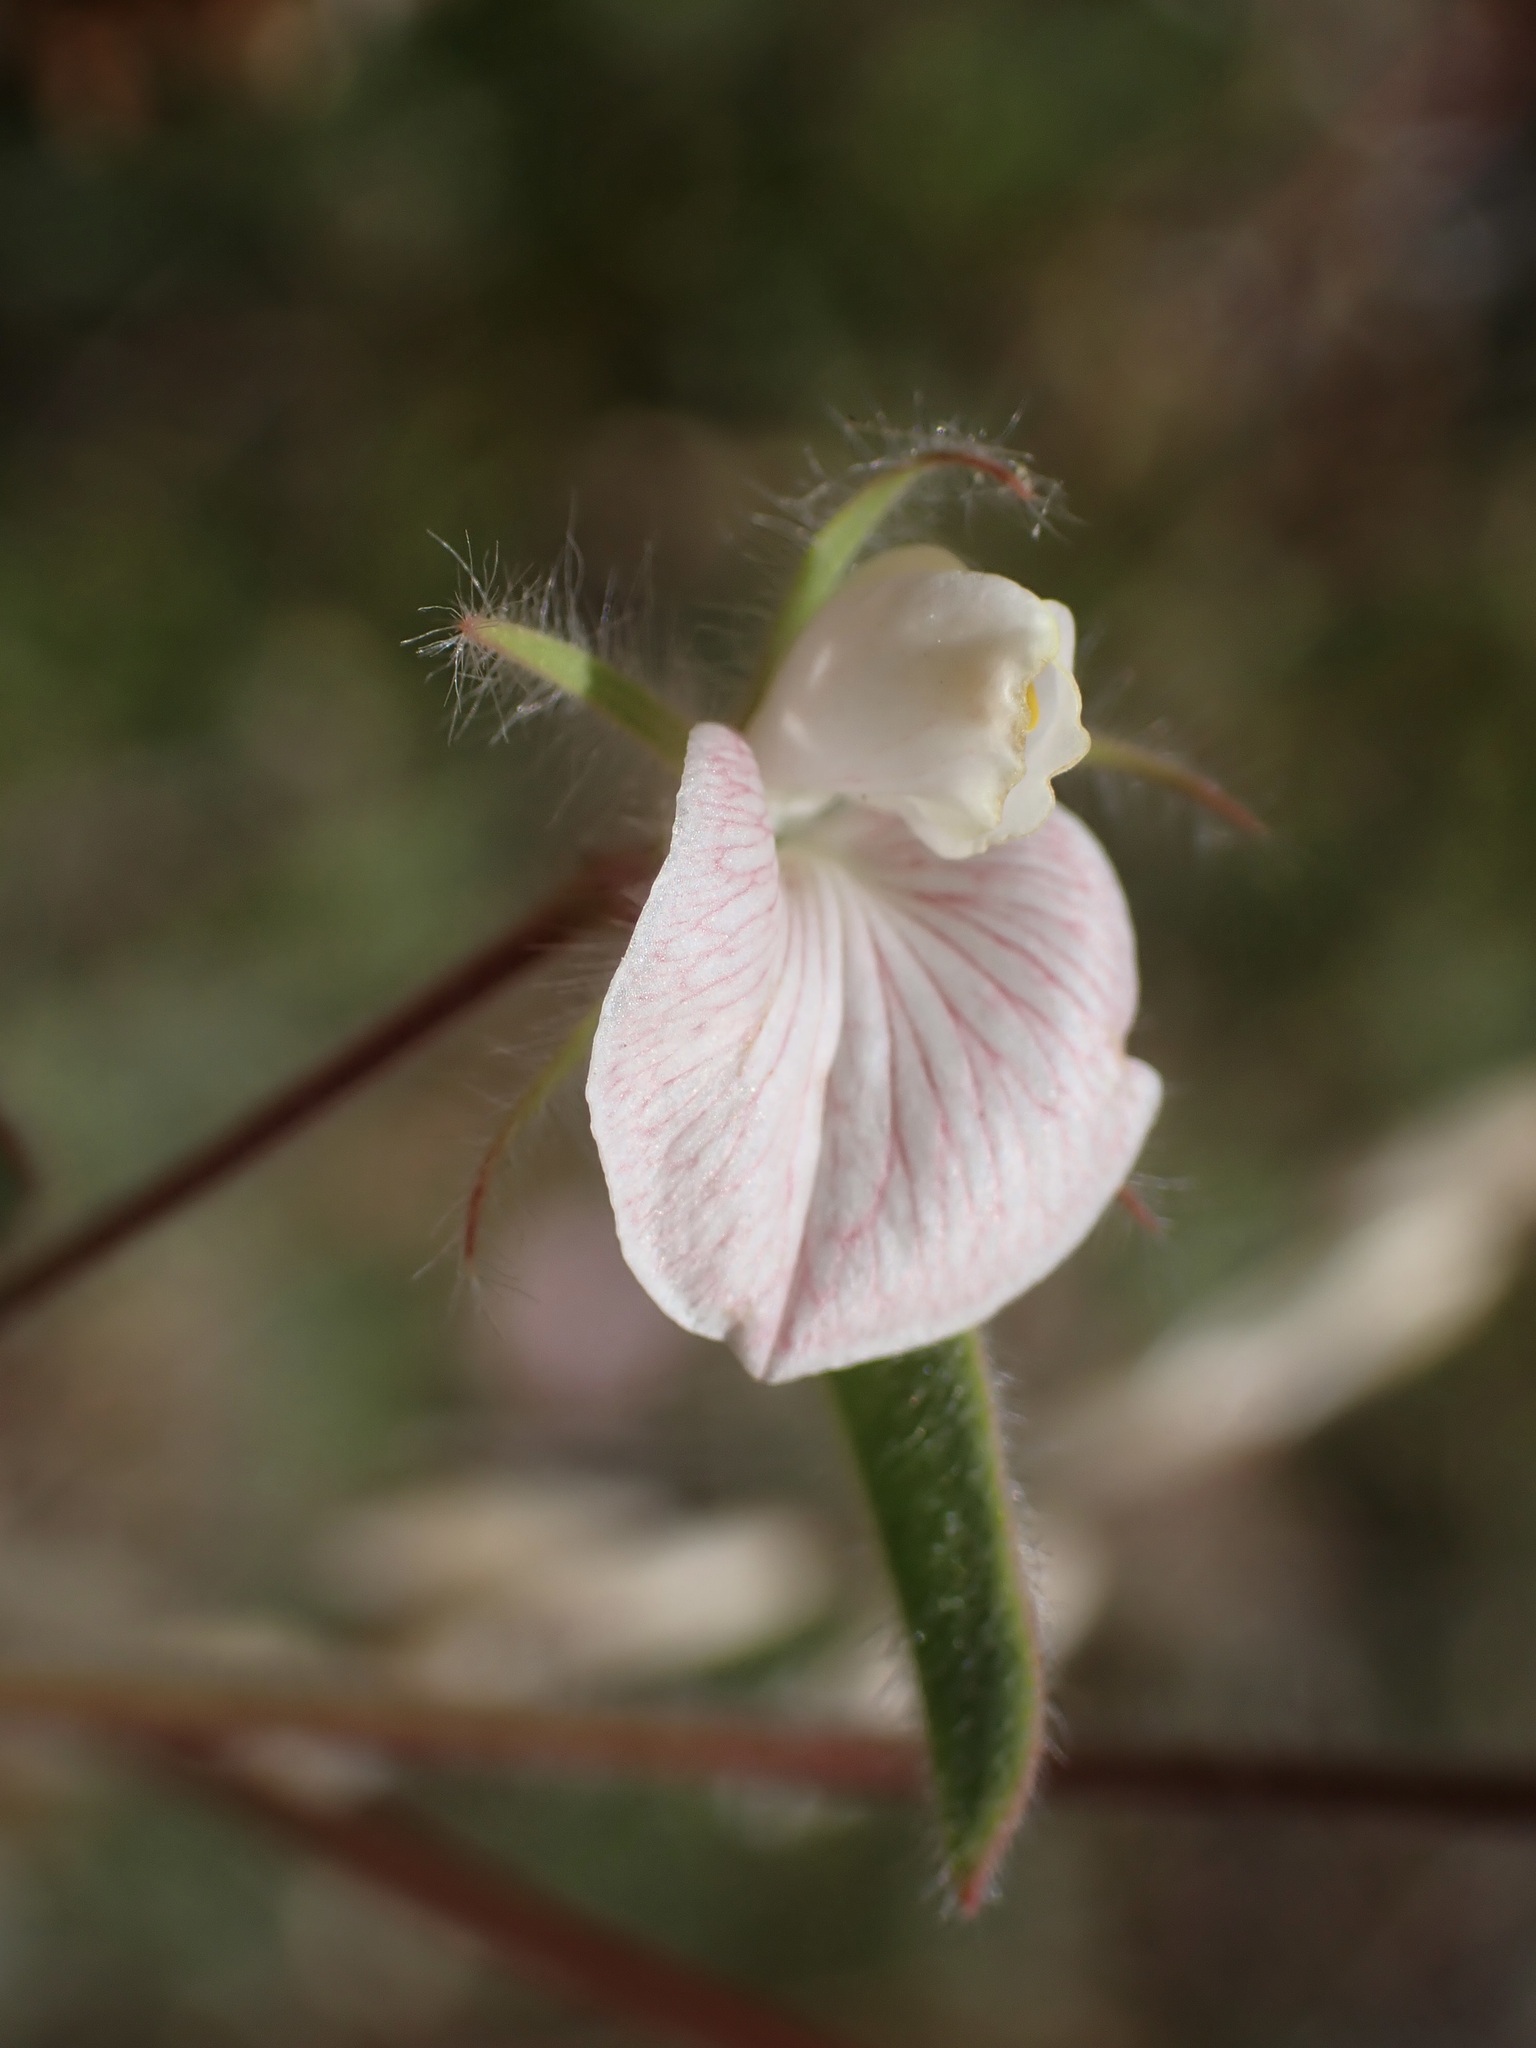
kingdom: Plantae
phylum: Tracheophyta
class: Magnoliopsida
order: Fabales
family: Fabaceae
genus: Acmispon
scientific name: Acmispon americanus
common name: American bird's-foot trefoil
